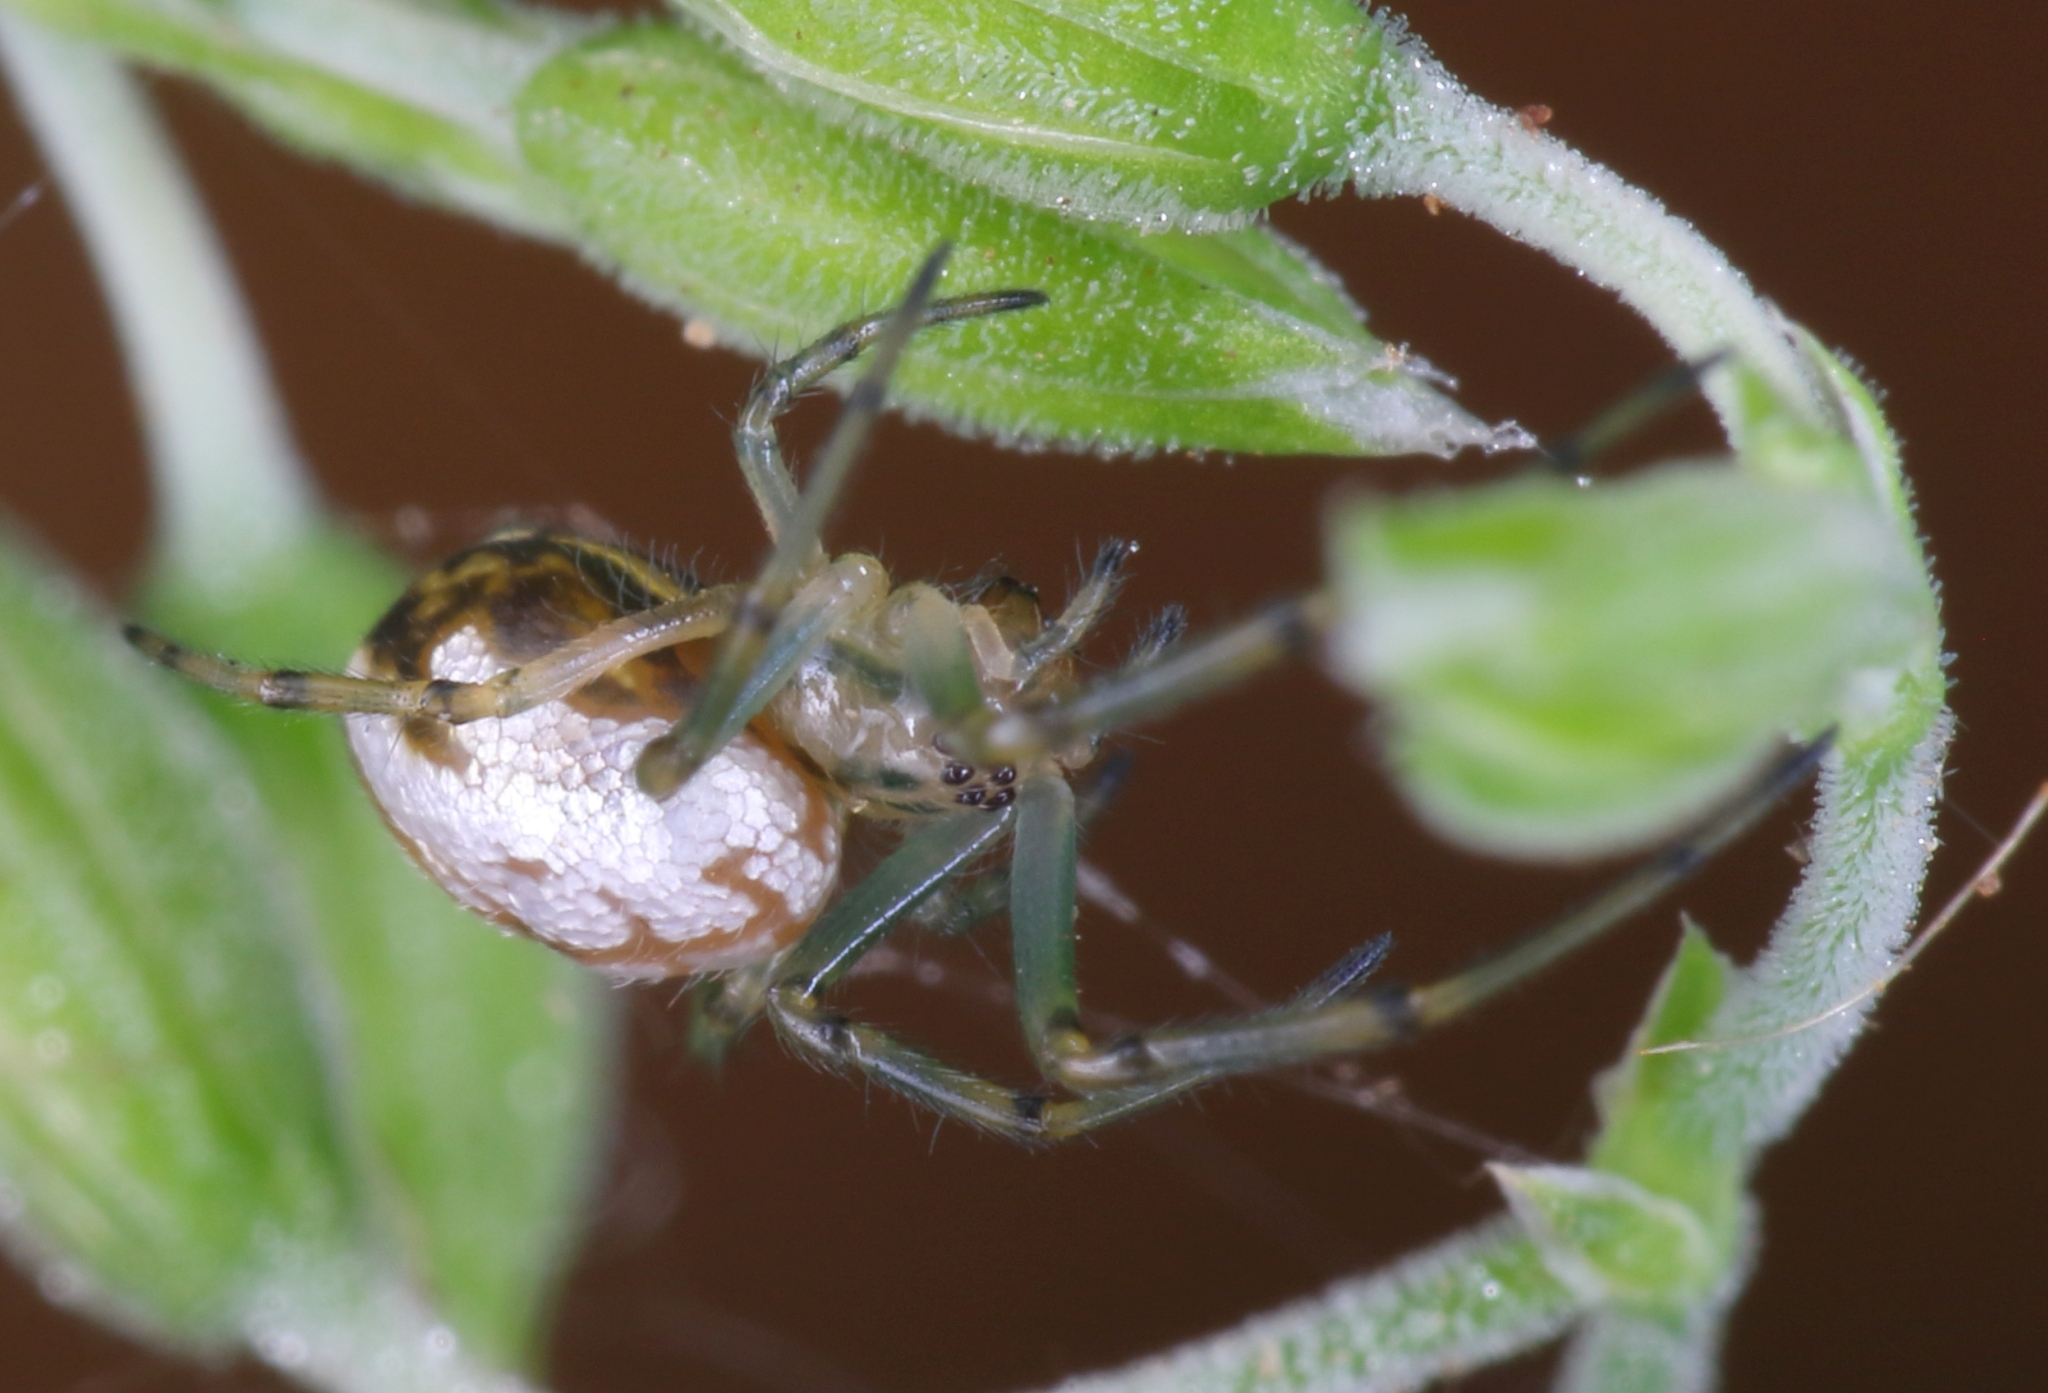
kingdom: Animalia
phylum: Arthropoda
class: Arachnida
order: Araneae
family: Tetragnathidae
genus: Leucauge
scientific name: Leucauge festiva
